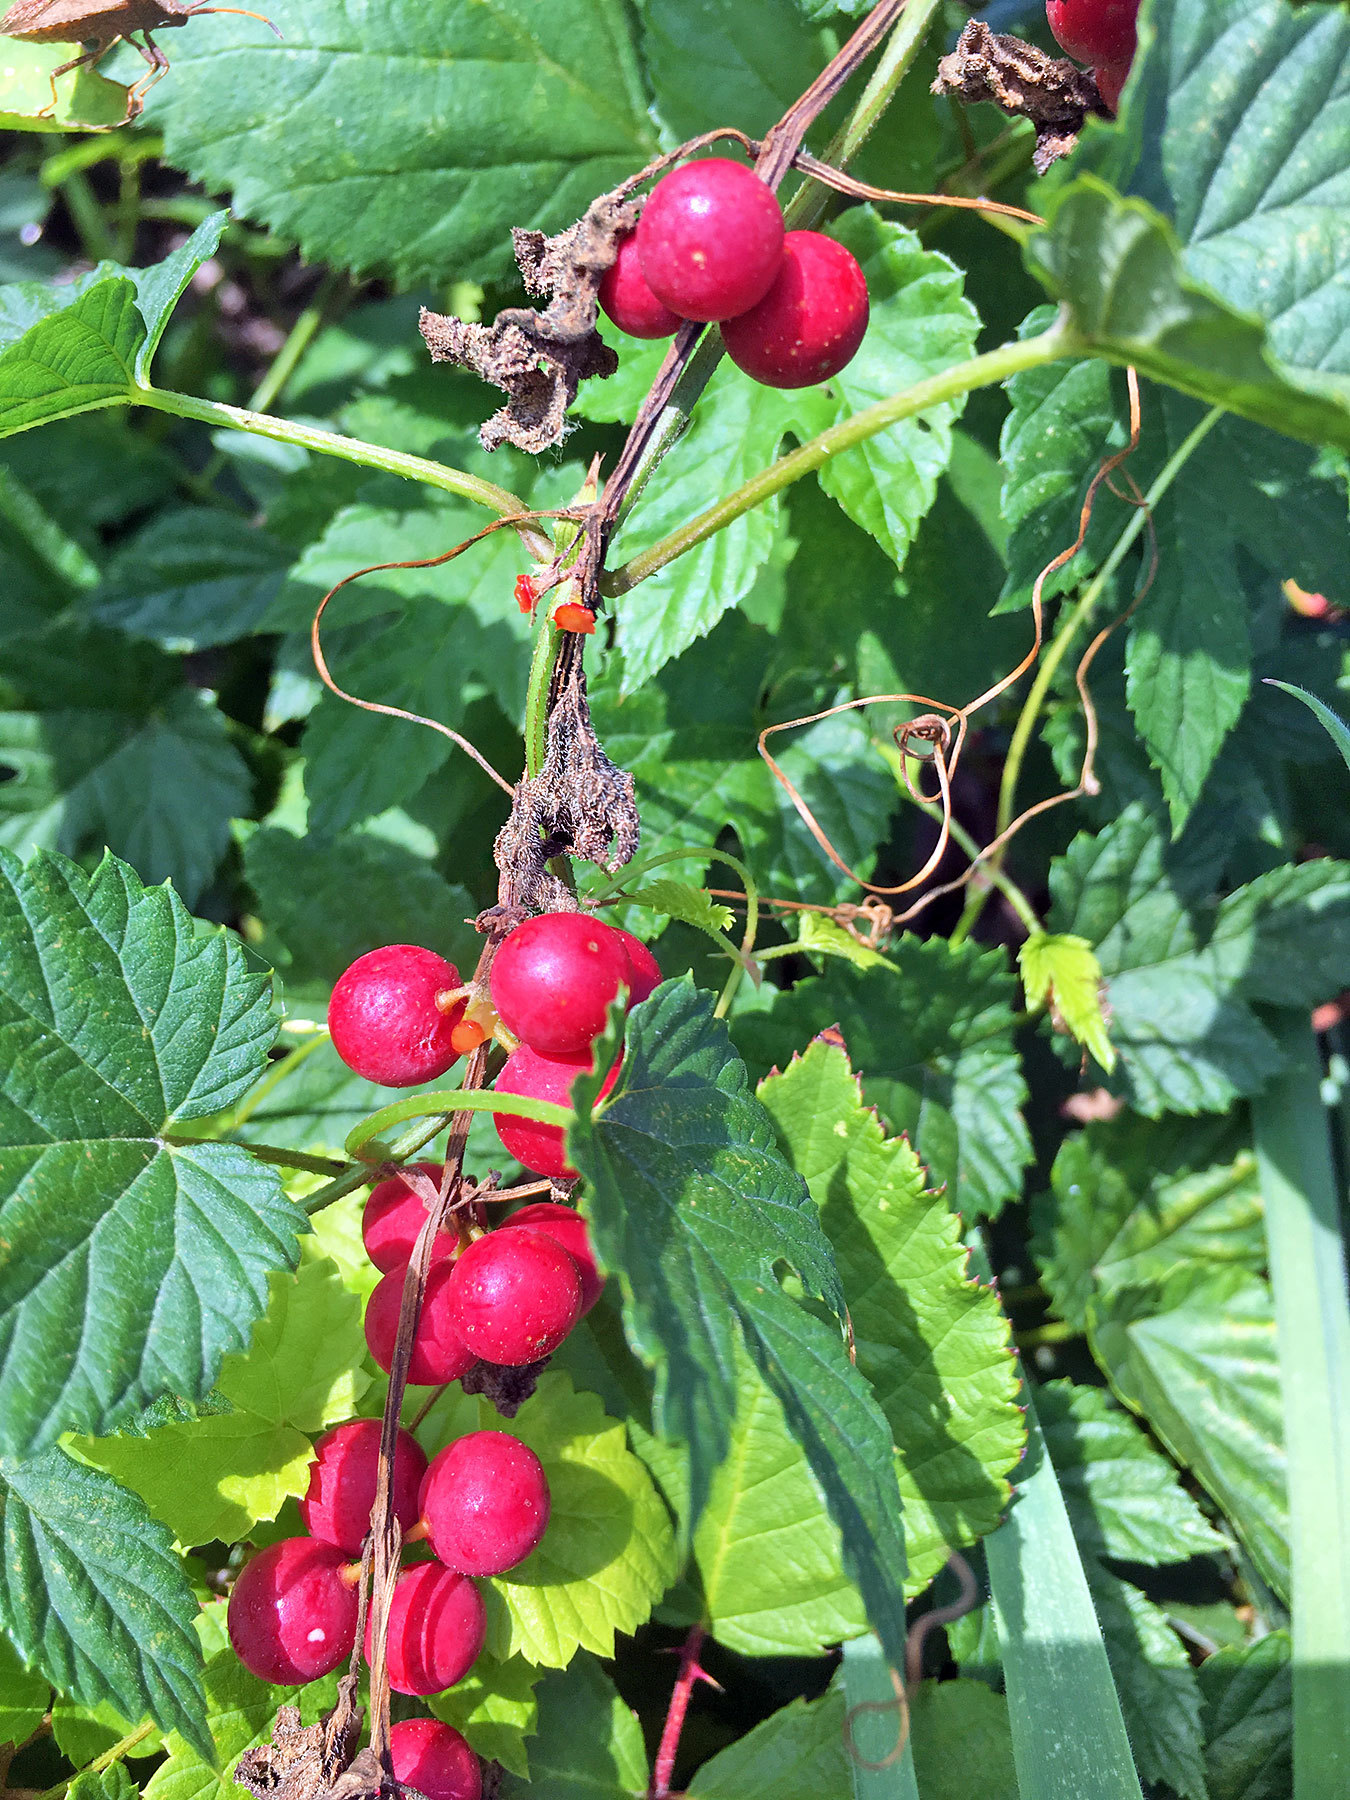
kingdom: Plantae
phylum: Tracheophyta
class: Magnoliopsida
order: Cucurbitales
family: Cucurbitaceae
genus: Bryonia
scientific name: Bryonia dioica
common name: White bryony
